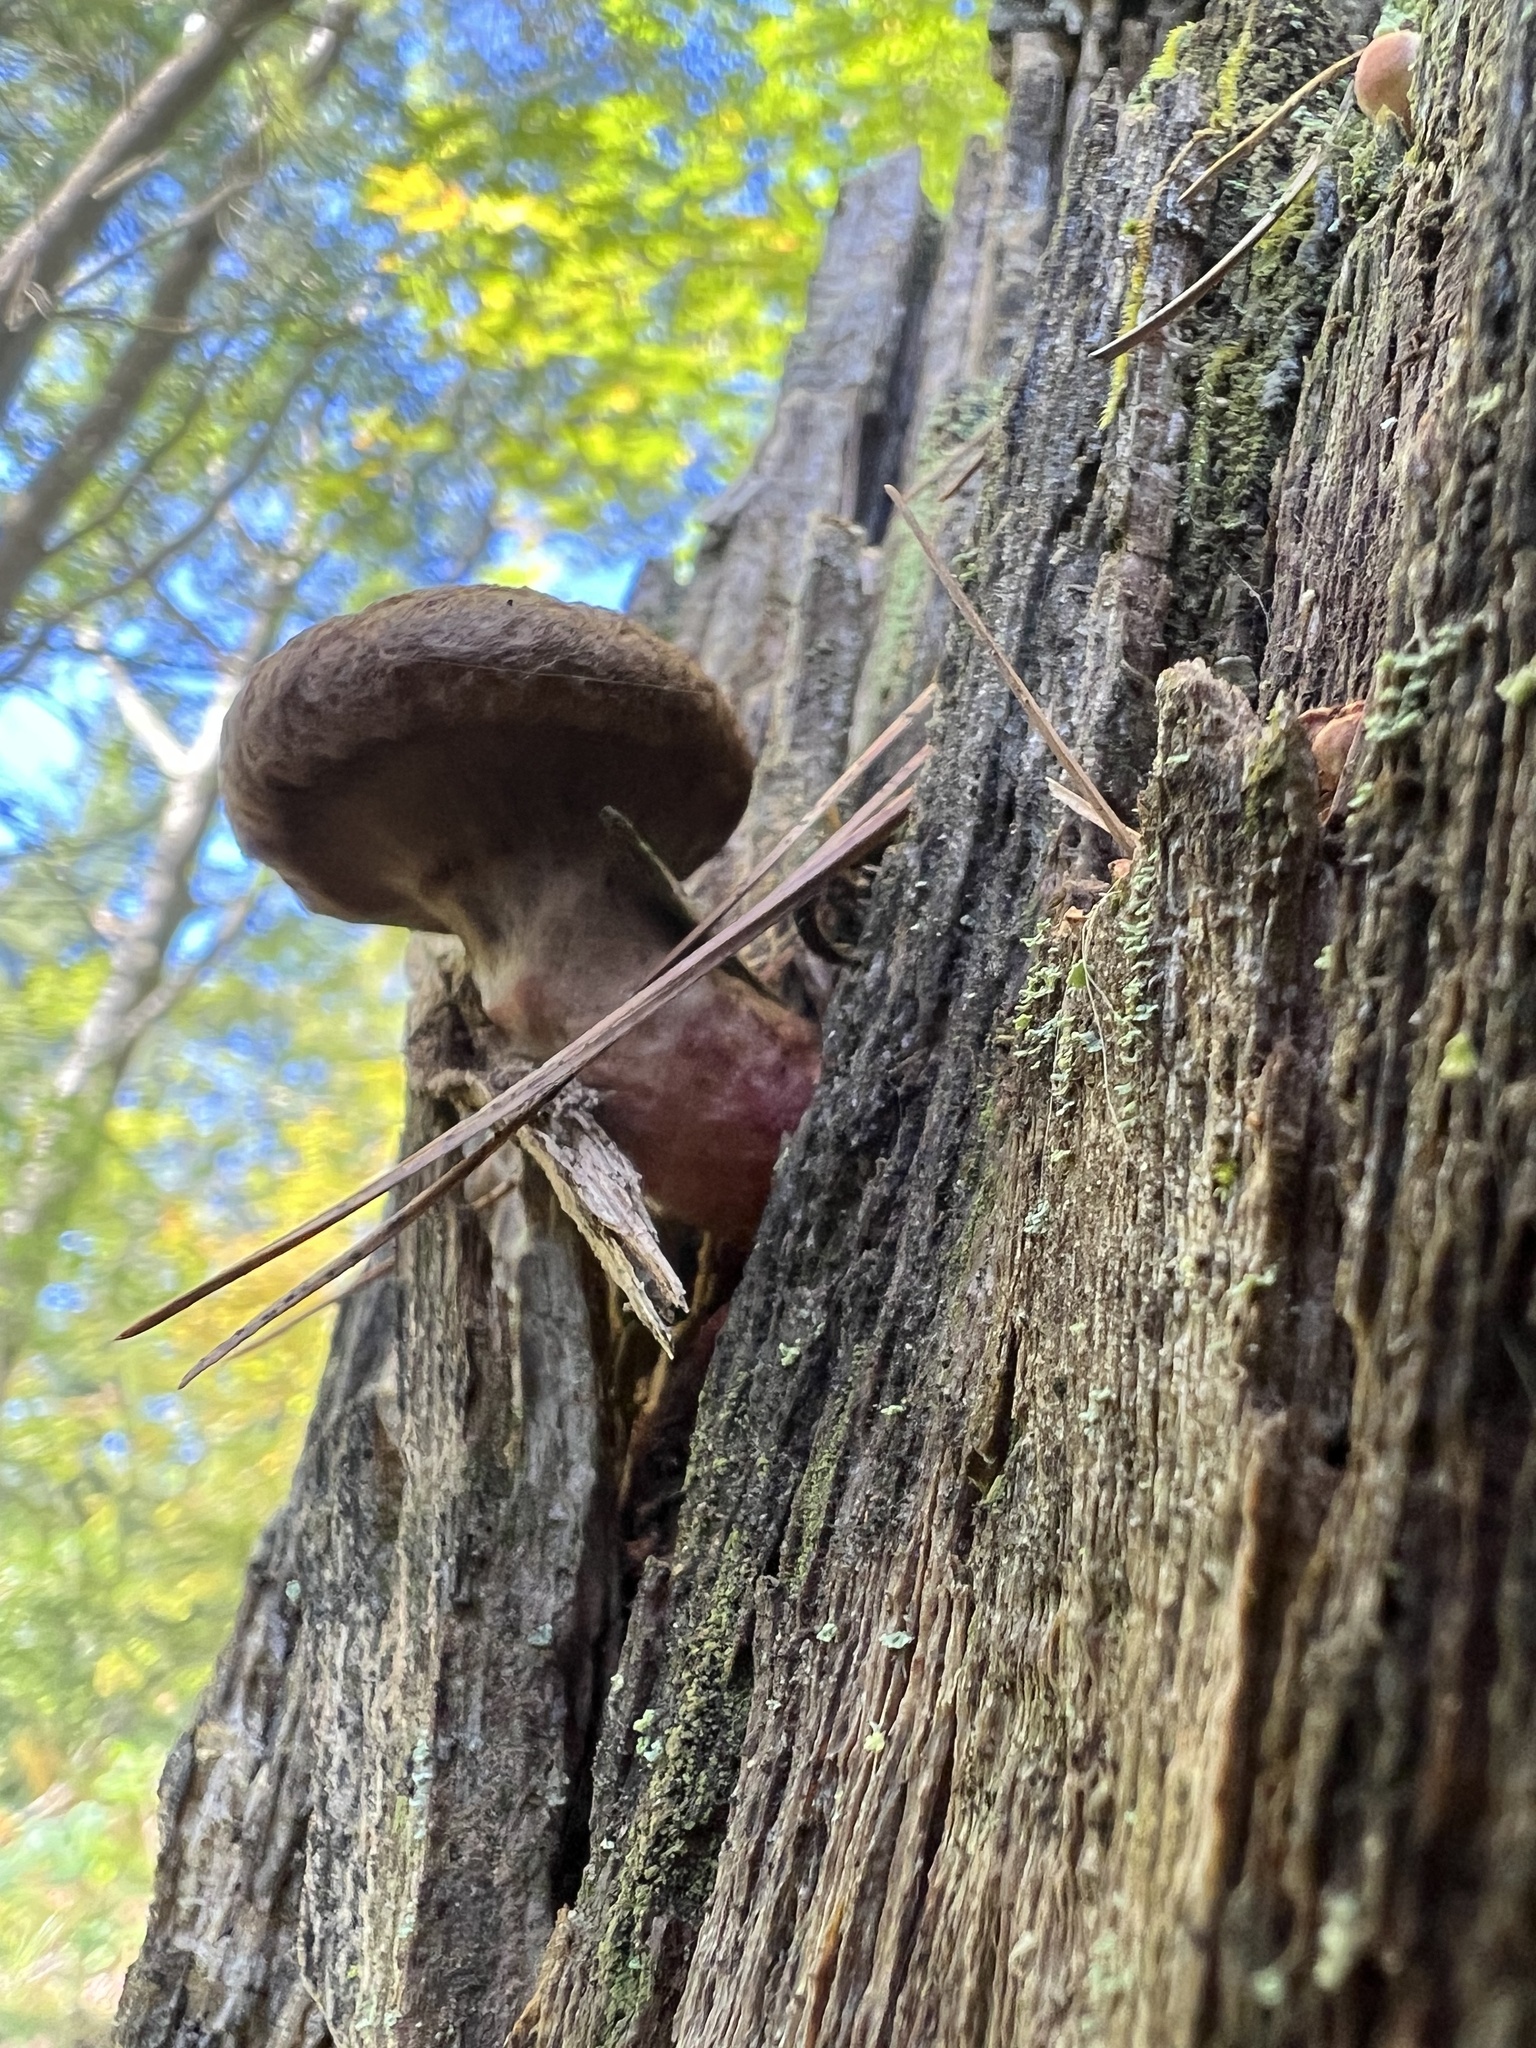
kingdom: Fungi
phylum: Basidiomycota
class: Agaricomycetes
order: Boletales
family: Suillaceae
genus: Suillus
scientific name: Suillus spraguei
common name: Painted suillus
